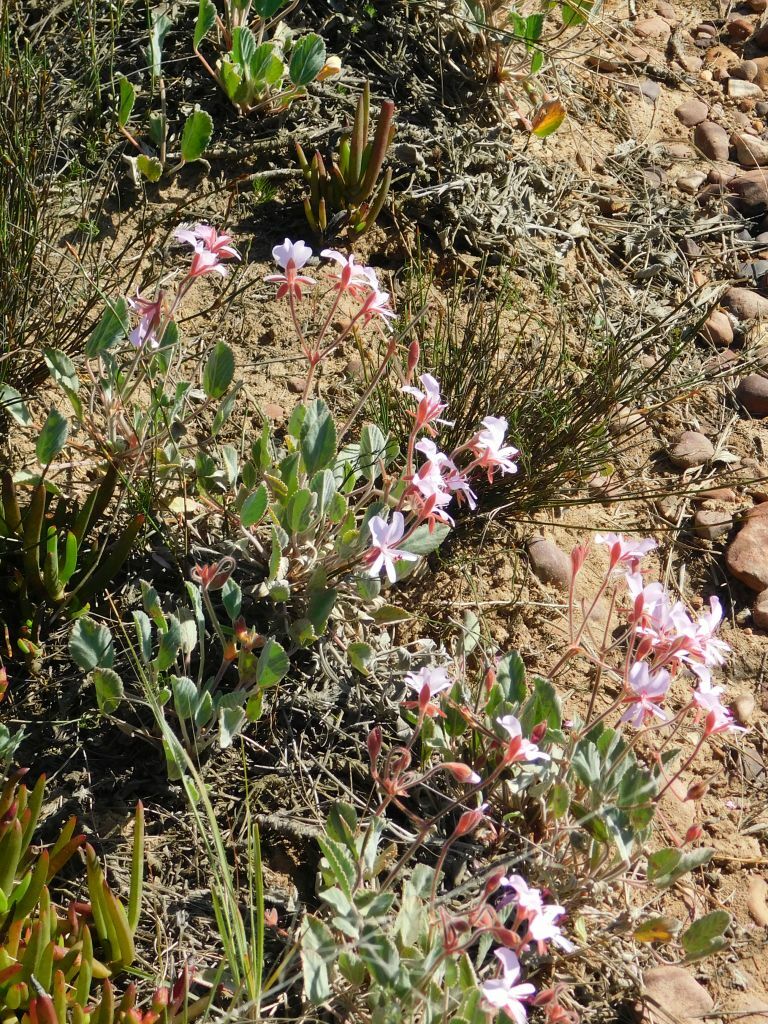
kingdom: Plantae
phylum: Tracheophyta
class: Magnoliopsida
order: Geraniales
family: Geraniaceae
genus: Pelargonium
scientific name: Pelargonium ovale
